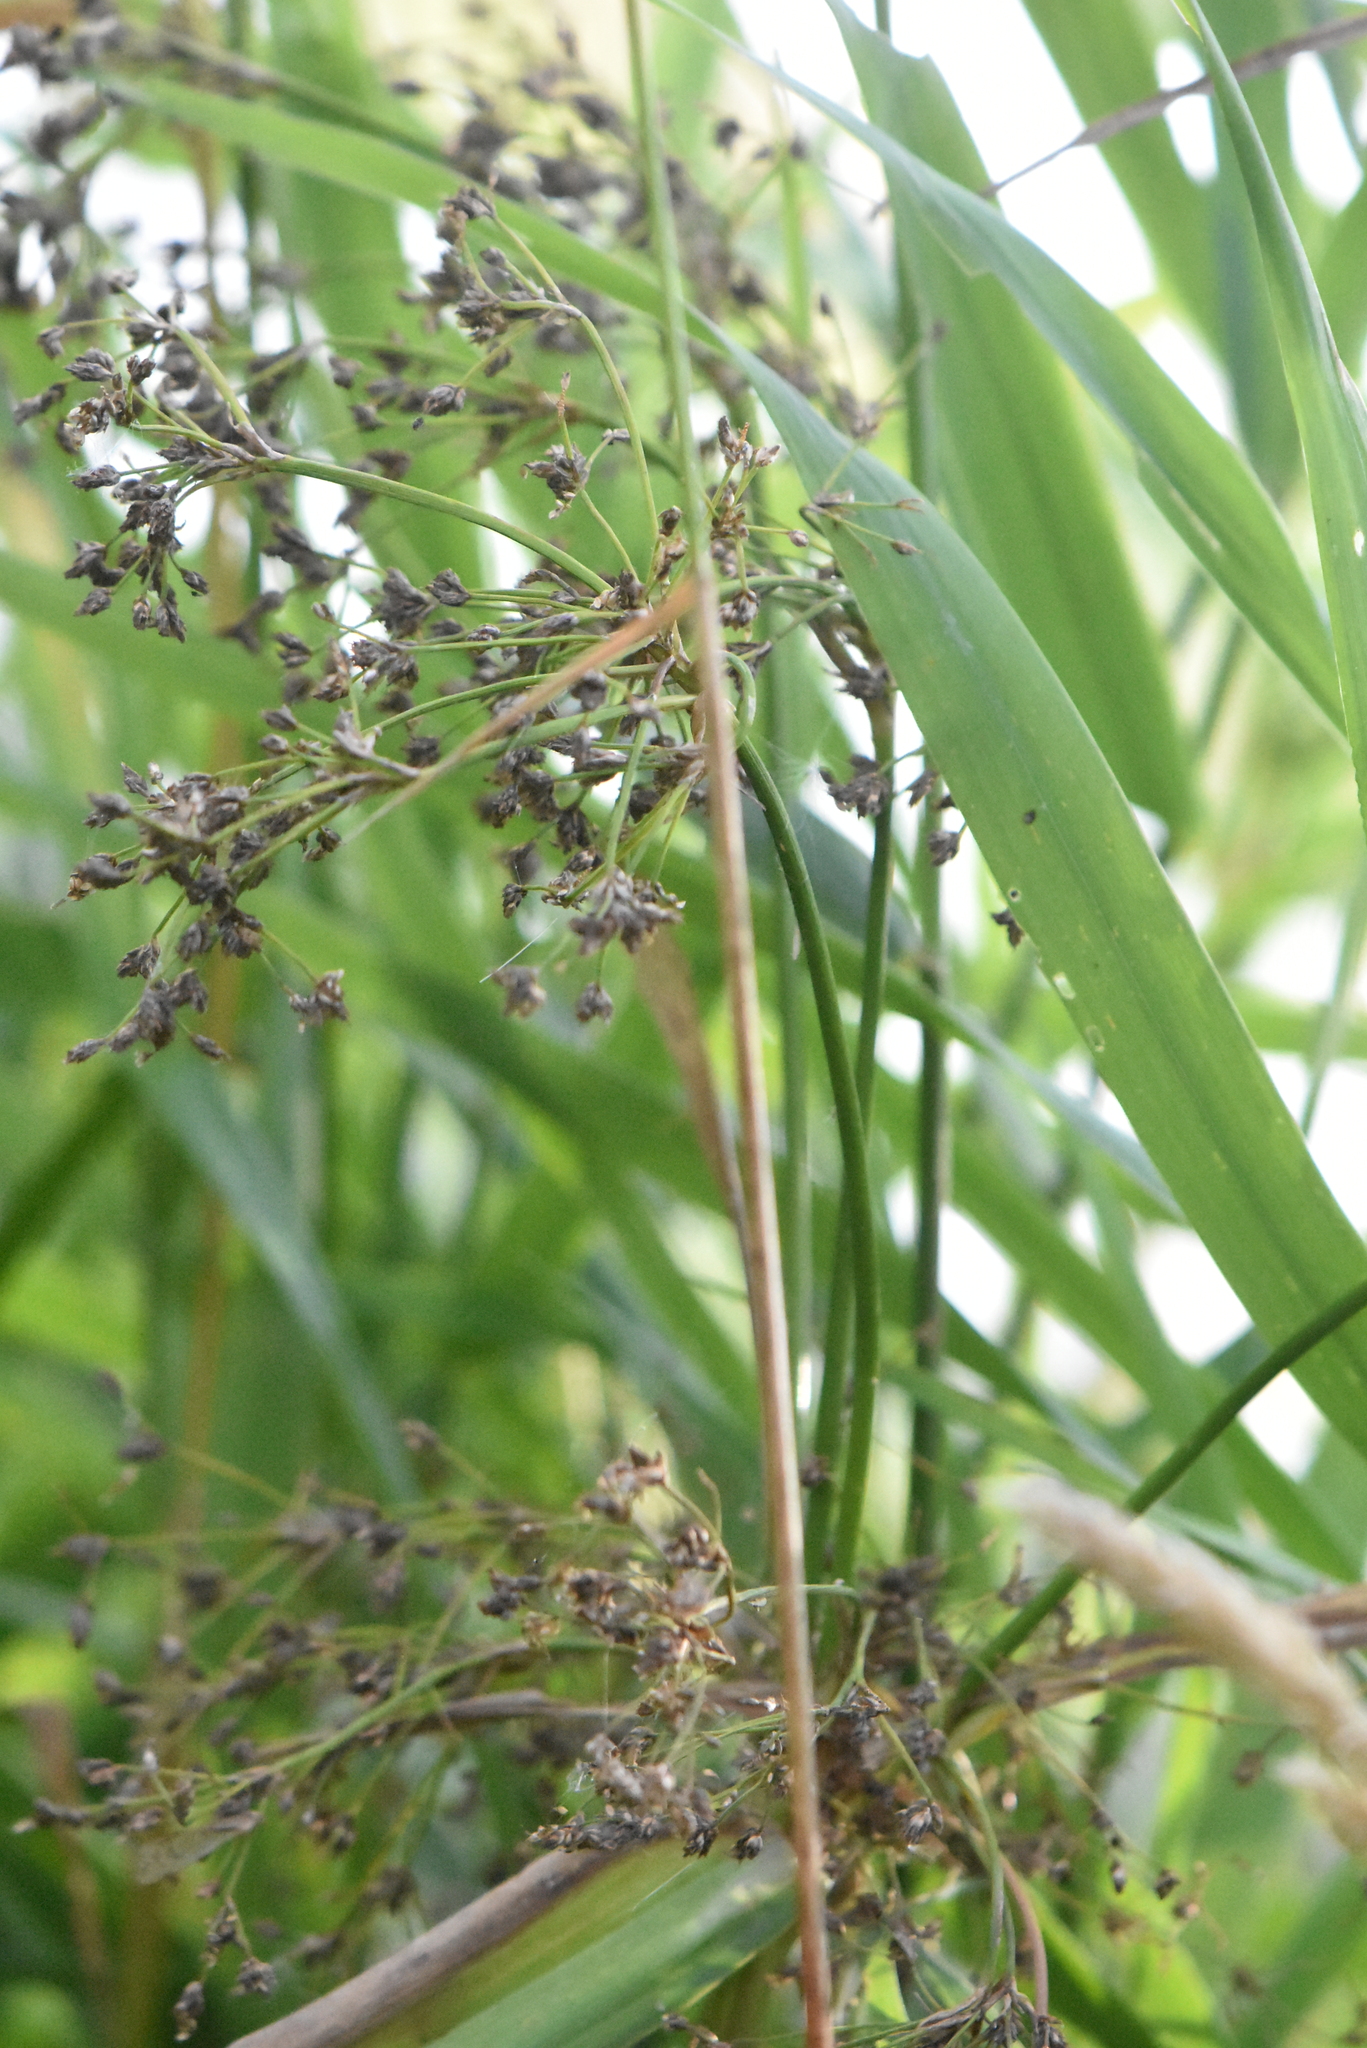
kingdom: Plantae
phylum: Tracheophyta
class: Liliopsida
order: Poales
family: Cyperaceae
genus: Scirpus
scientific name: Scirpus sylvaticus
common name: Wood club-rush
